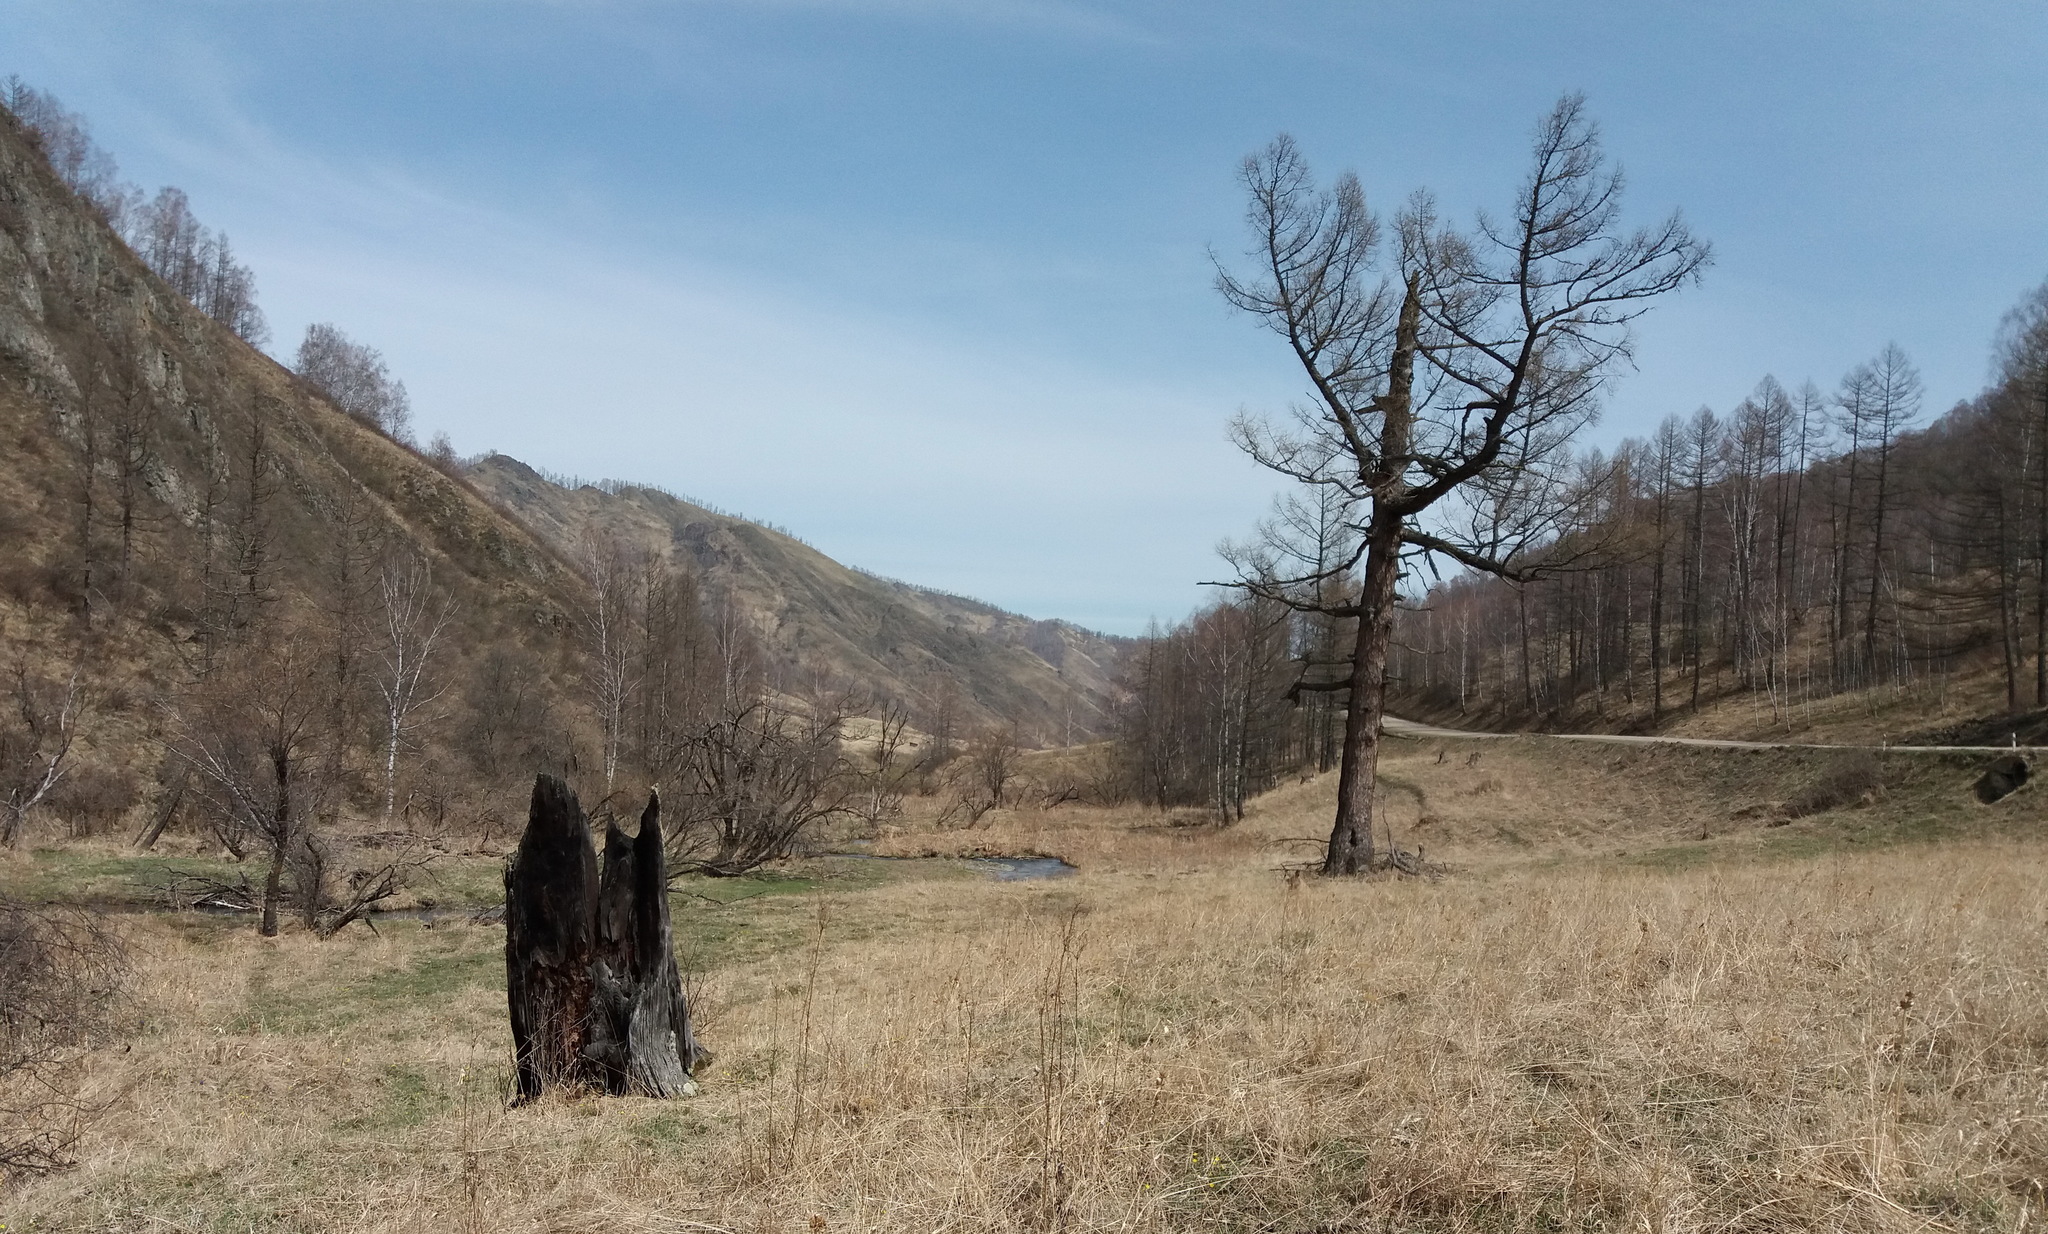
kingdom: Plantae
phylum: Tracheophyta
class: Pinopsida
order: Pinales
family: Pinaceae
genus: Larix
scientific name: Larix sibirica
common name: Siberian larch
